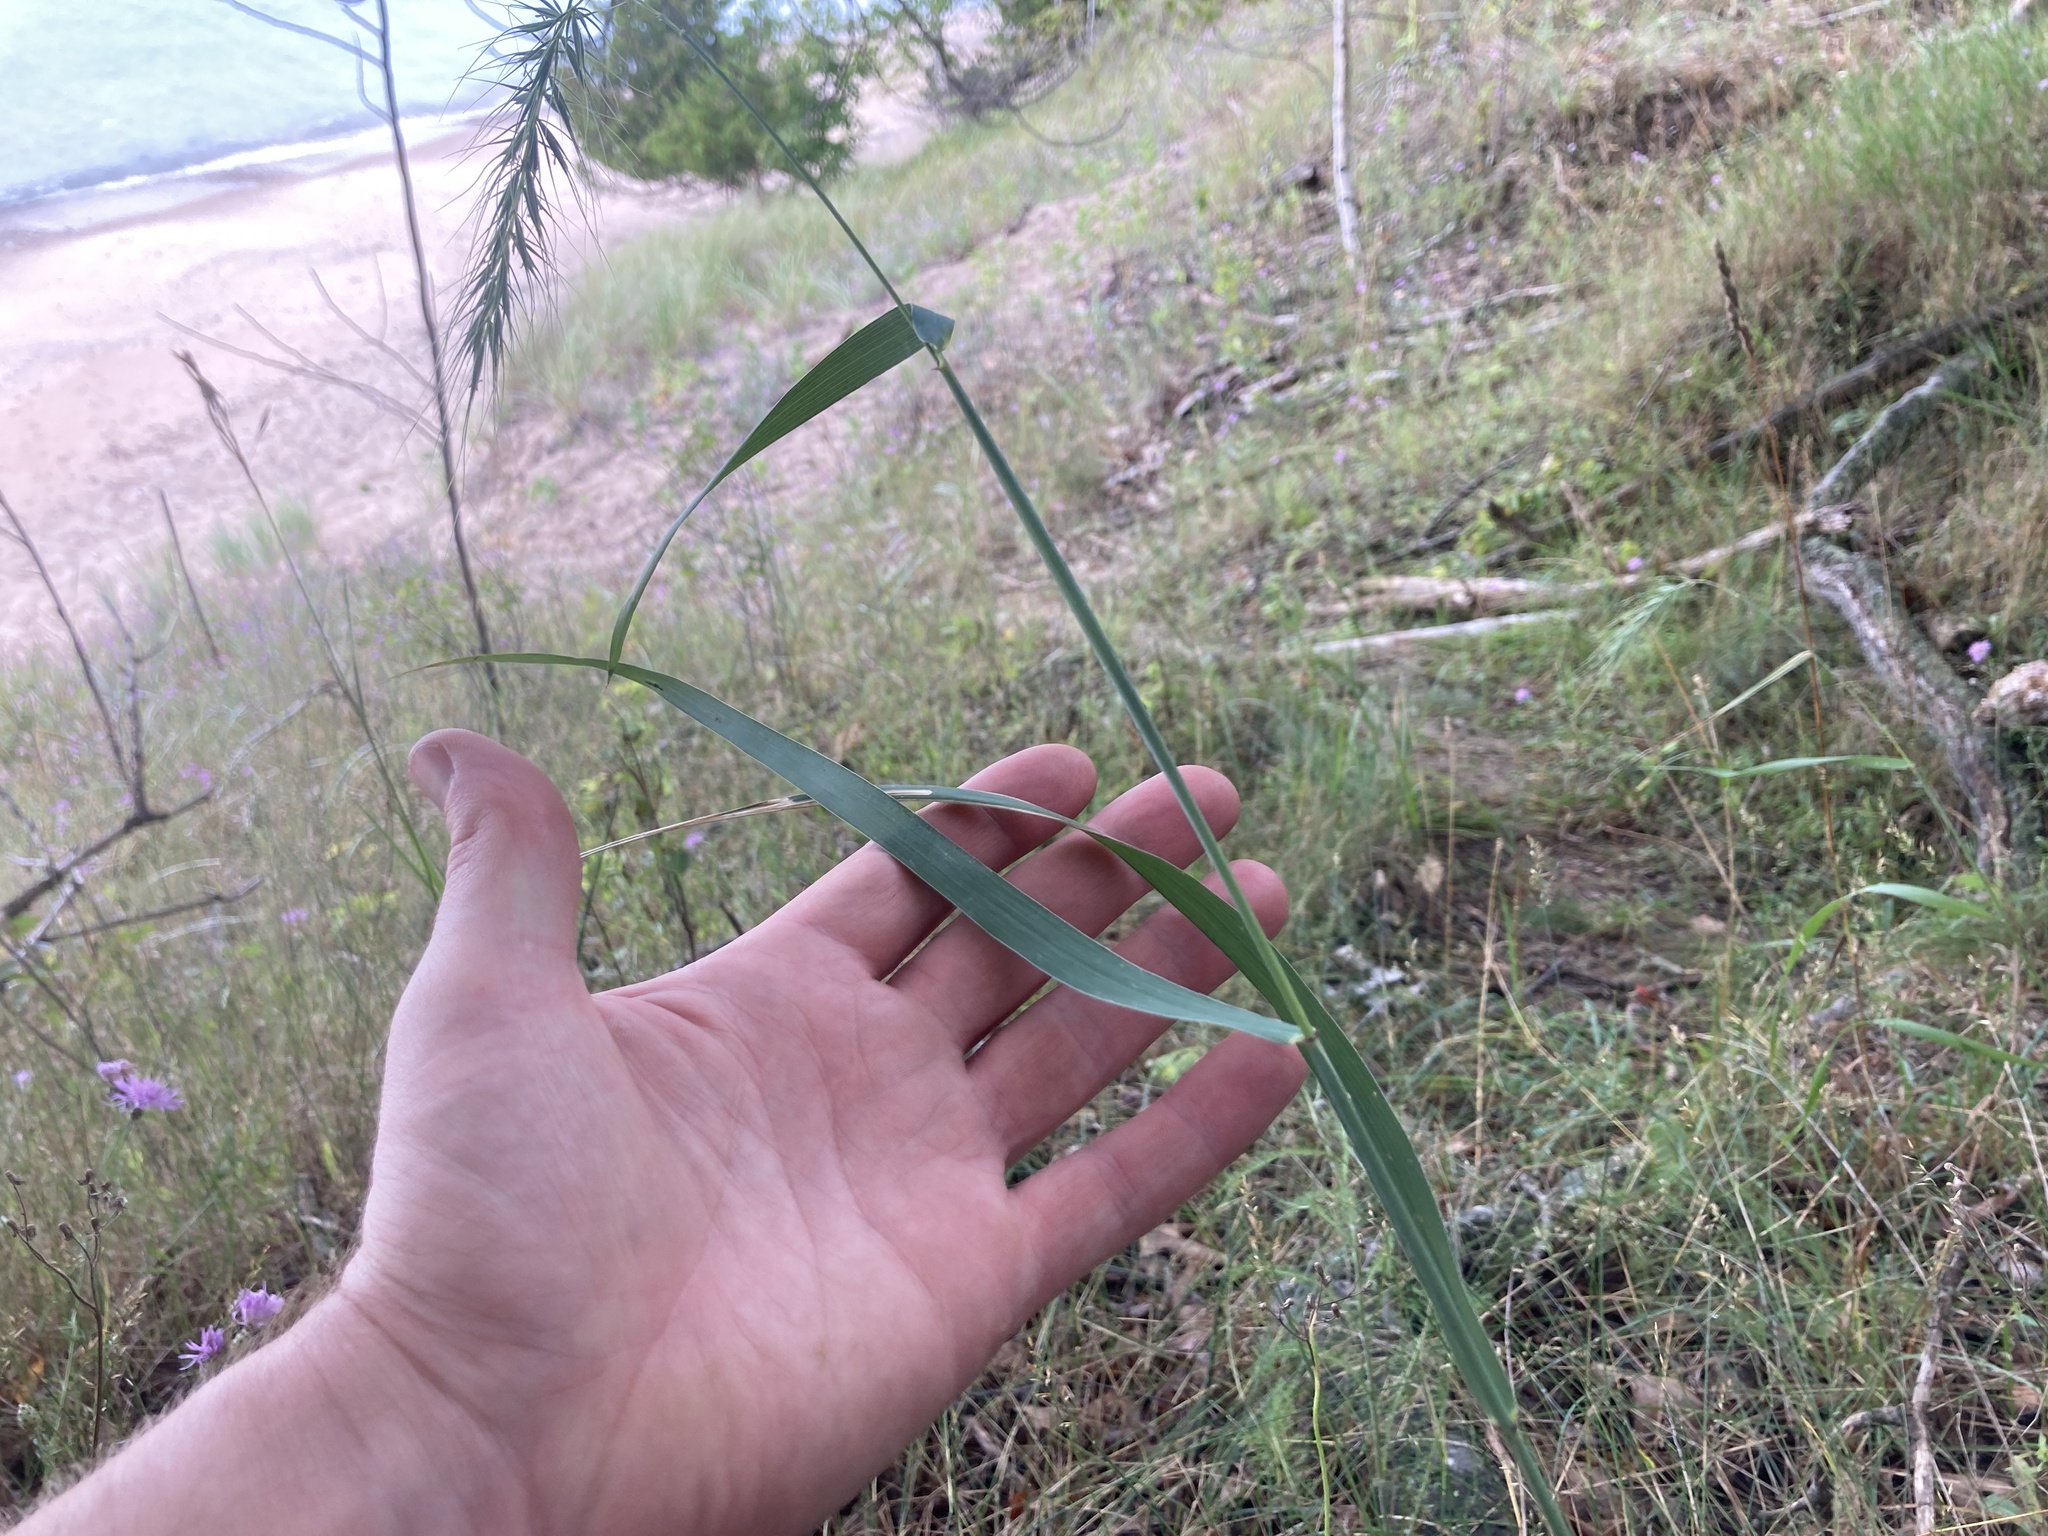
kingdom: Plantae
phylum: Tracheophyta
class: Liliopsida
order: Poales
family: Poaceae
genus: Elymus
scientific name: Elymus canadensis
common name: Canada wild rye
